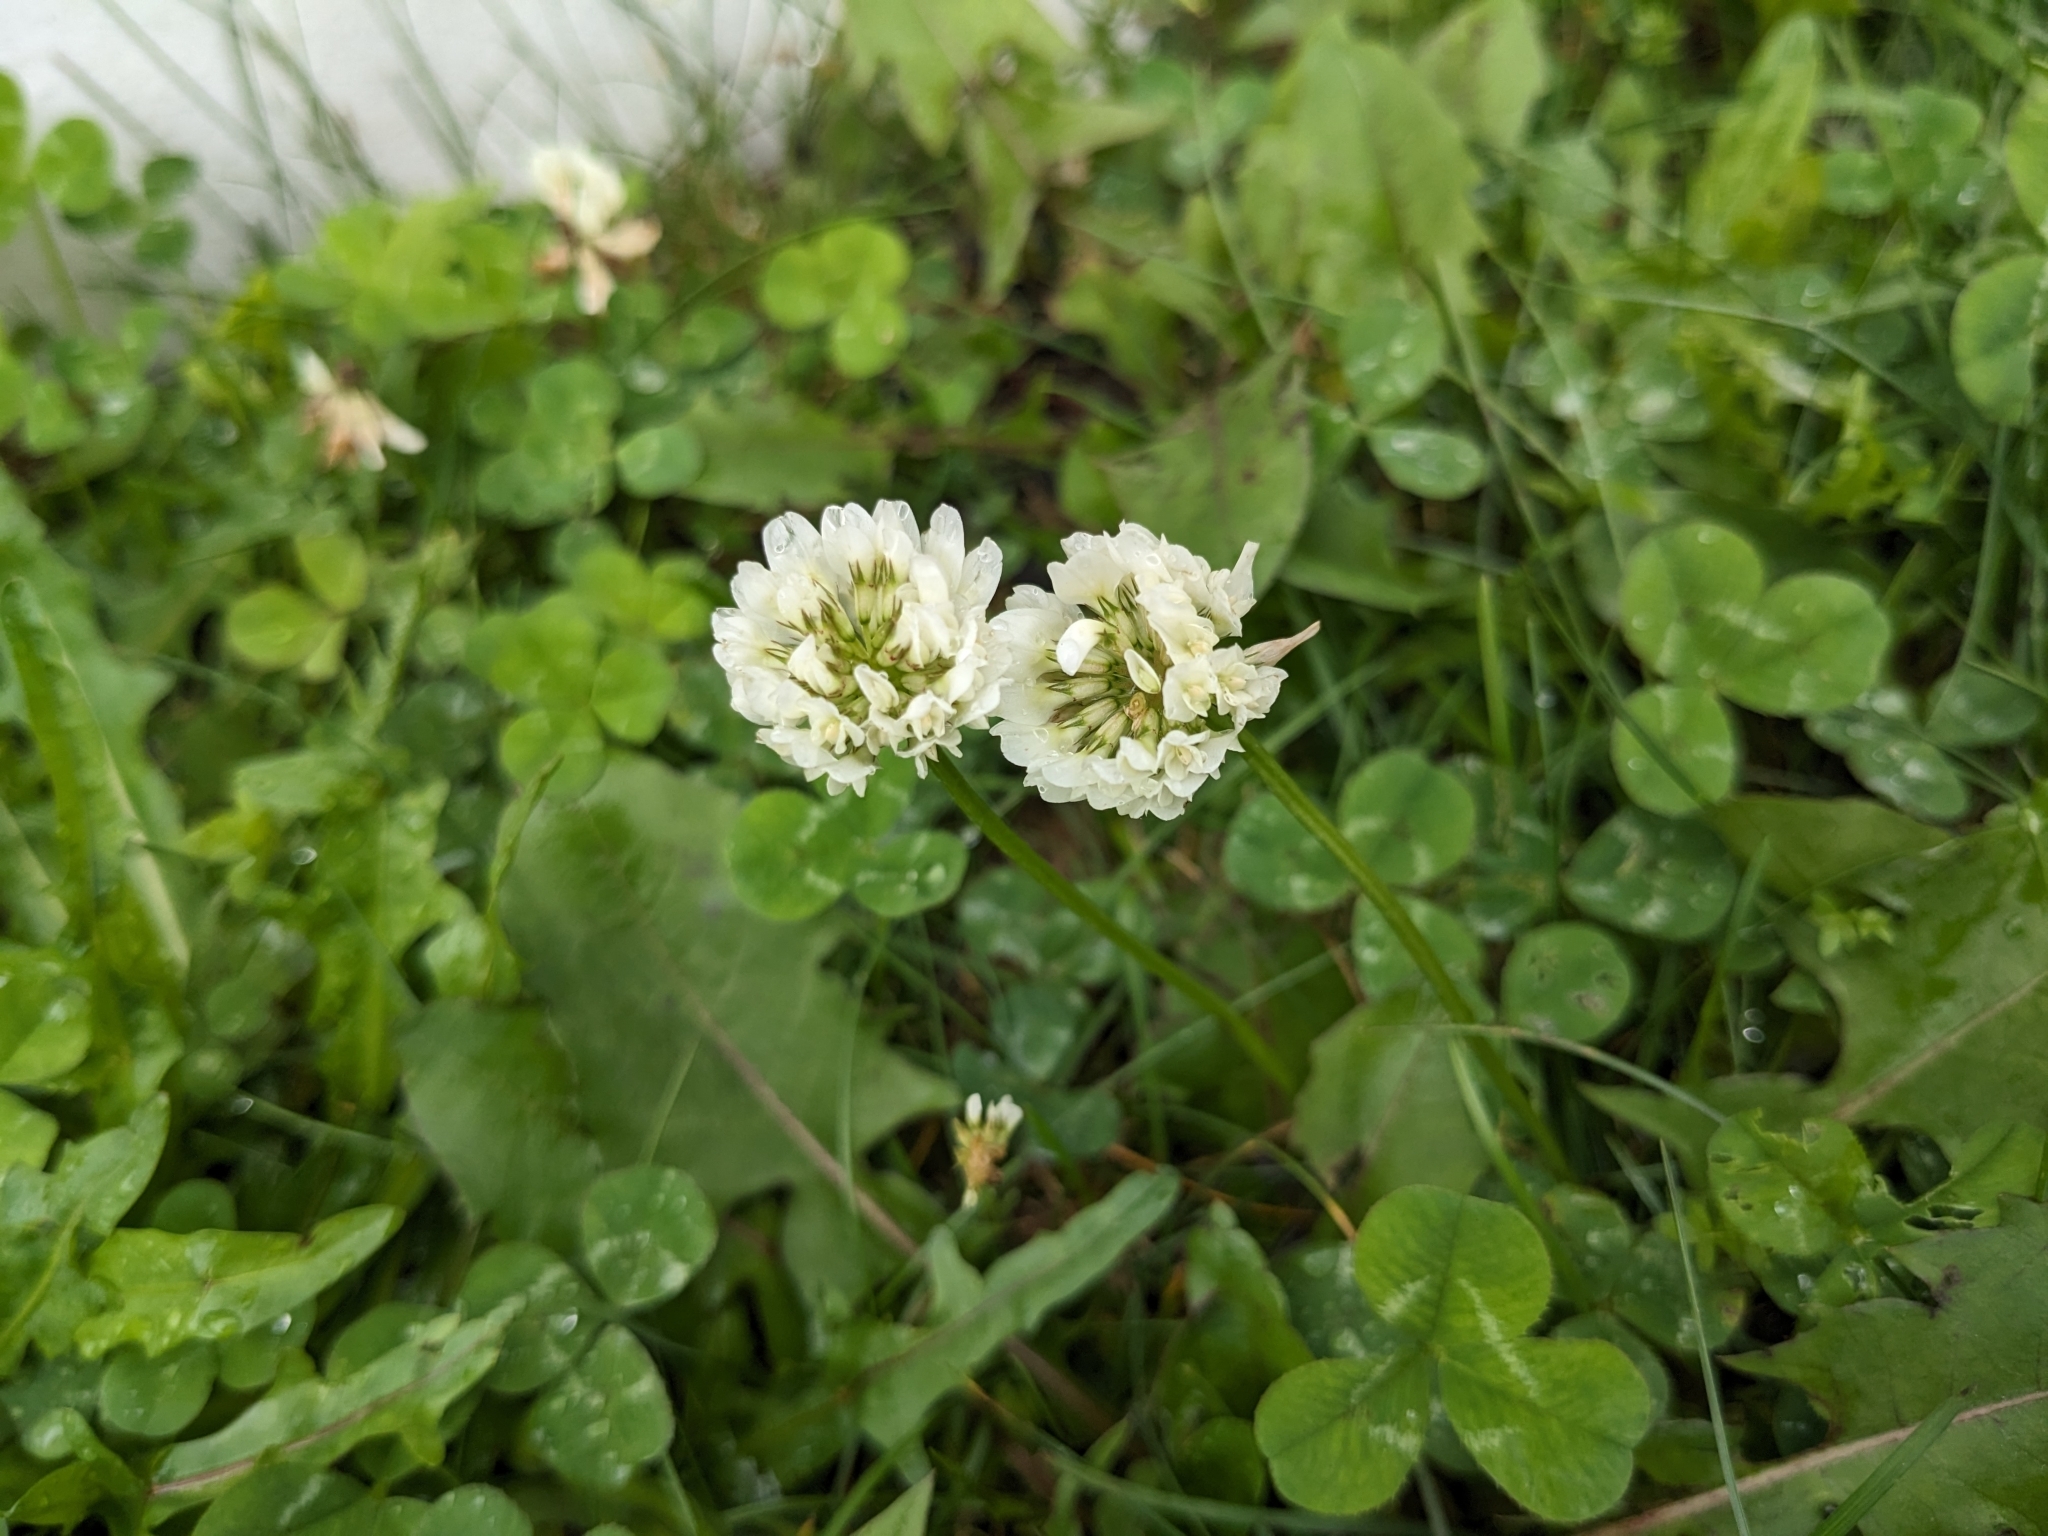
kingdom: Plantae
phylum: Tracheophyta
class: Magnoliopsida
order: Fabales
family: Fabaceae
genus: Trifolium
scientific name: Trifolium repens
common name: White clover
